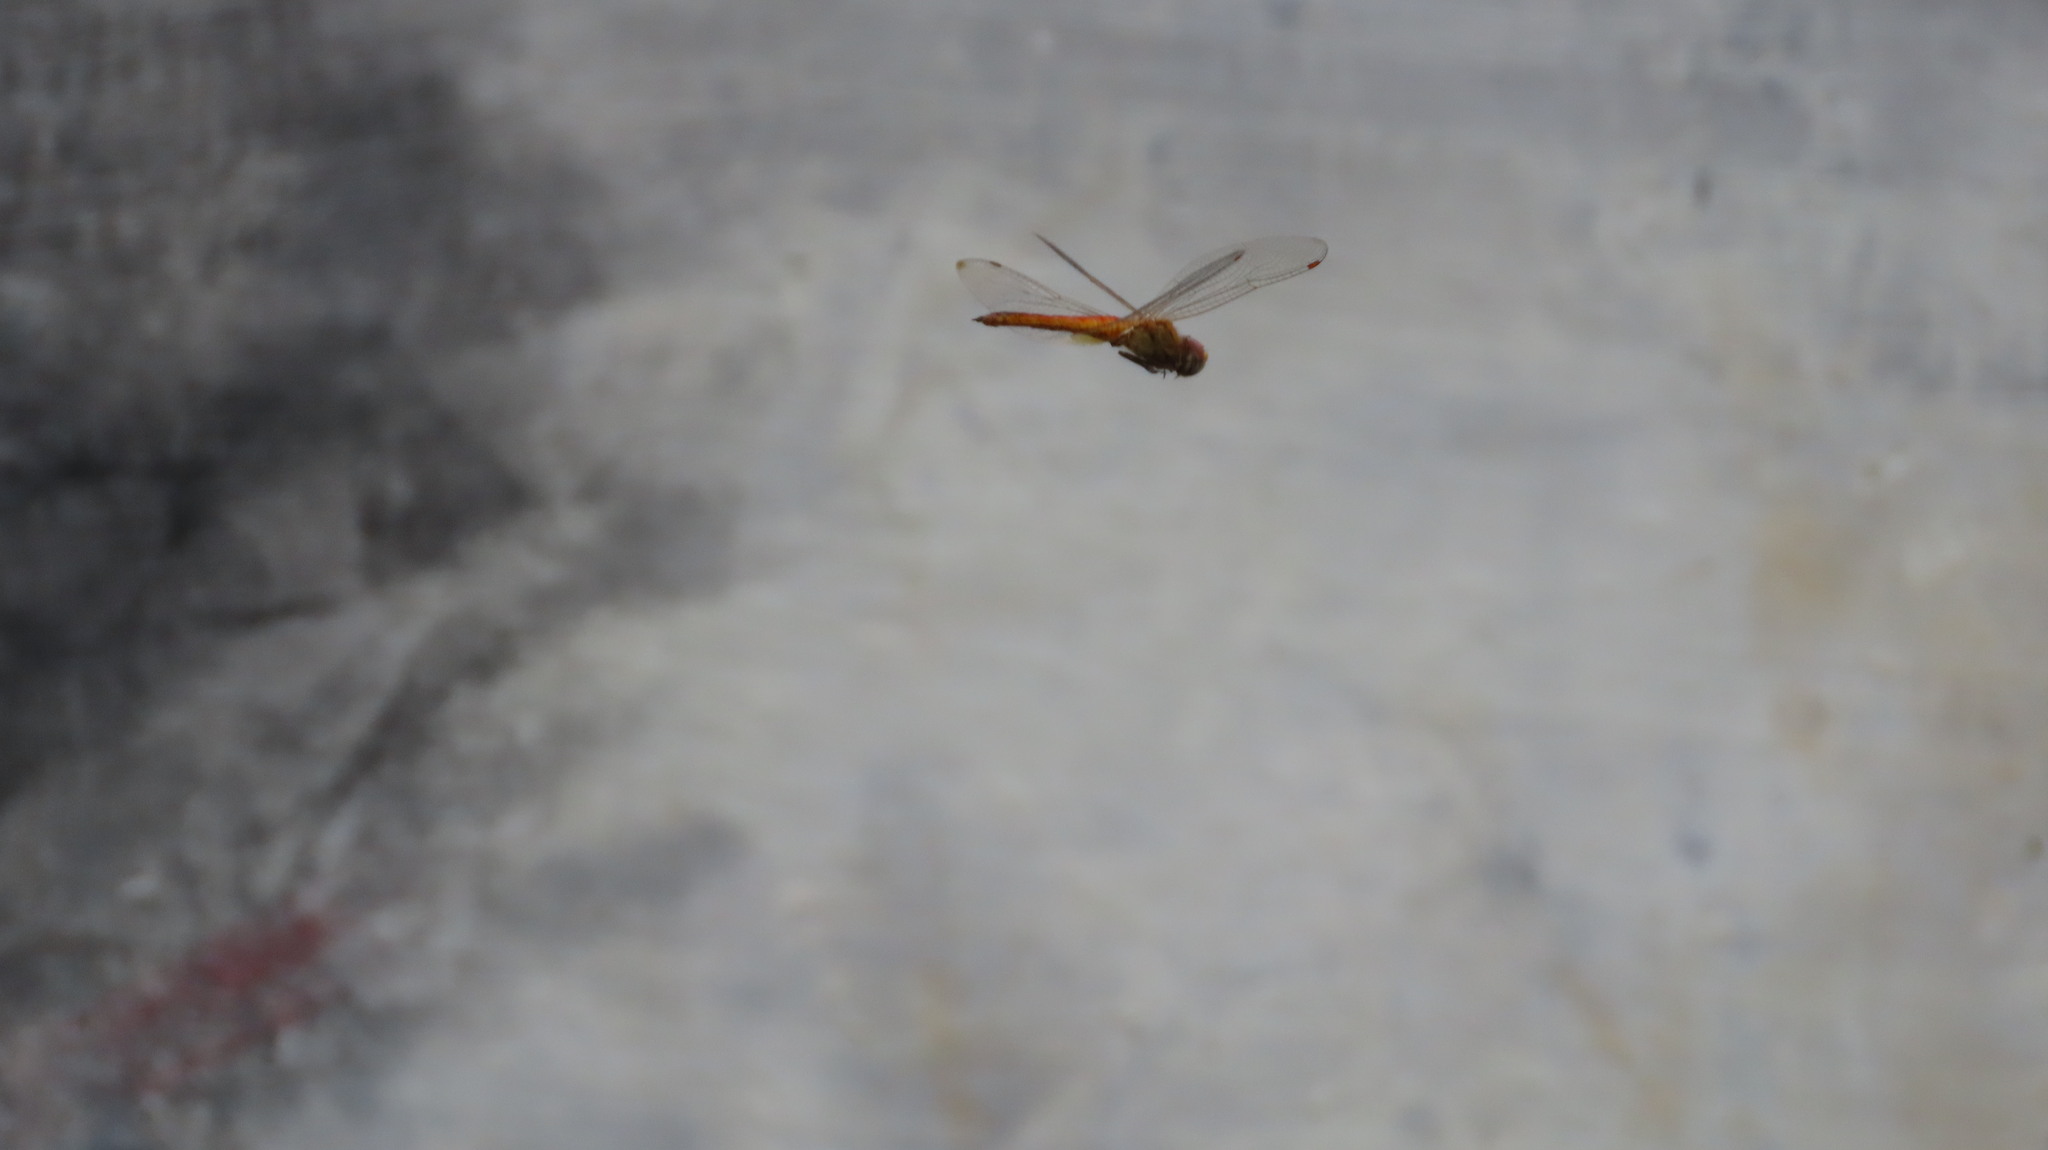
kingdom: Animalia
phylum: Arthropoda
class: Insecta
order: Odonata
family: Libellulidae
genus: Pantala
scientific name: Pantala flavescens
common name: Wandering glider
